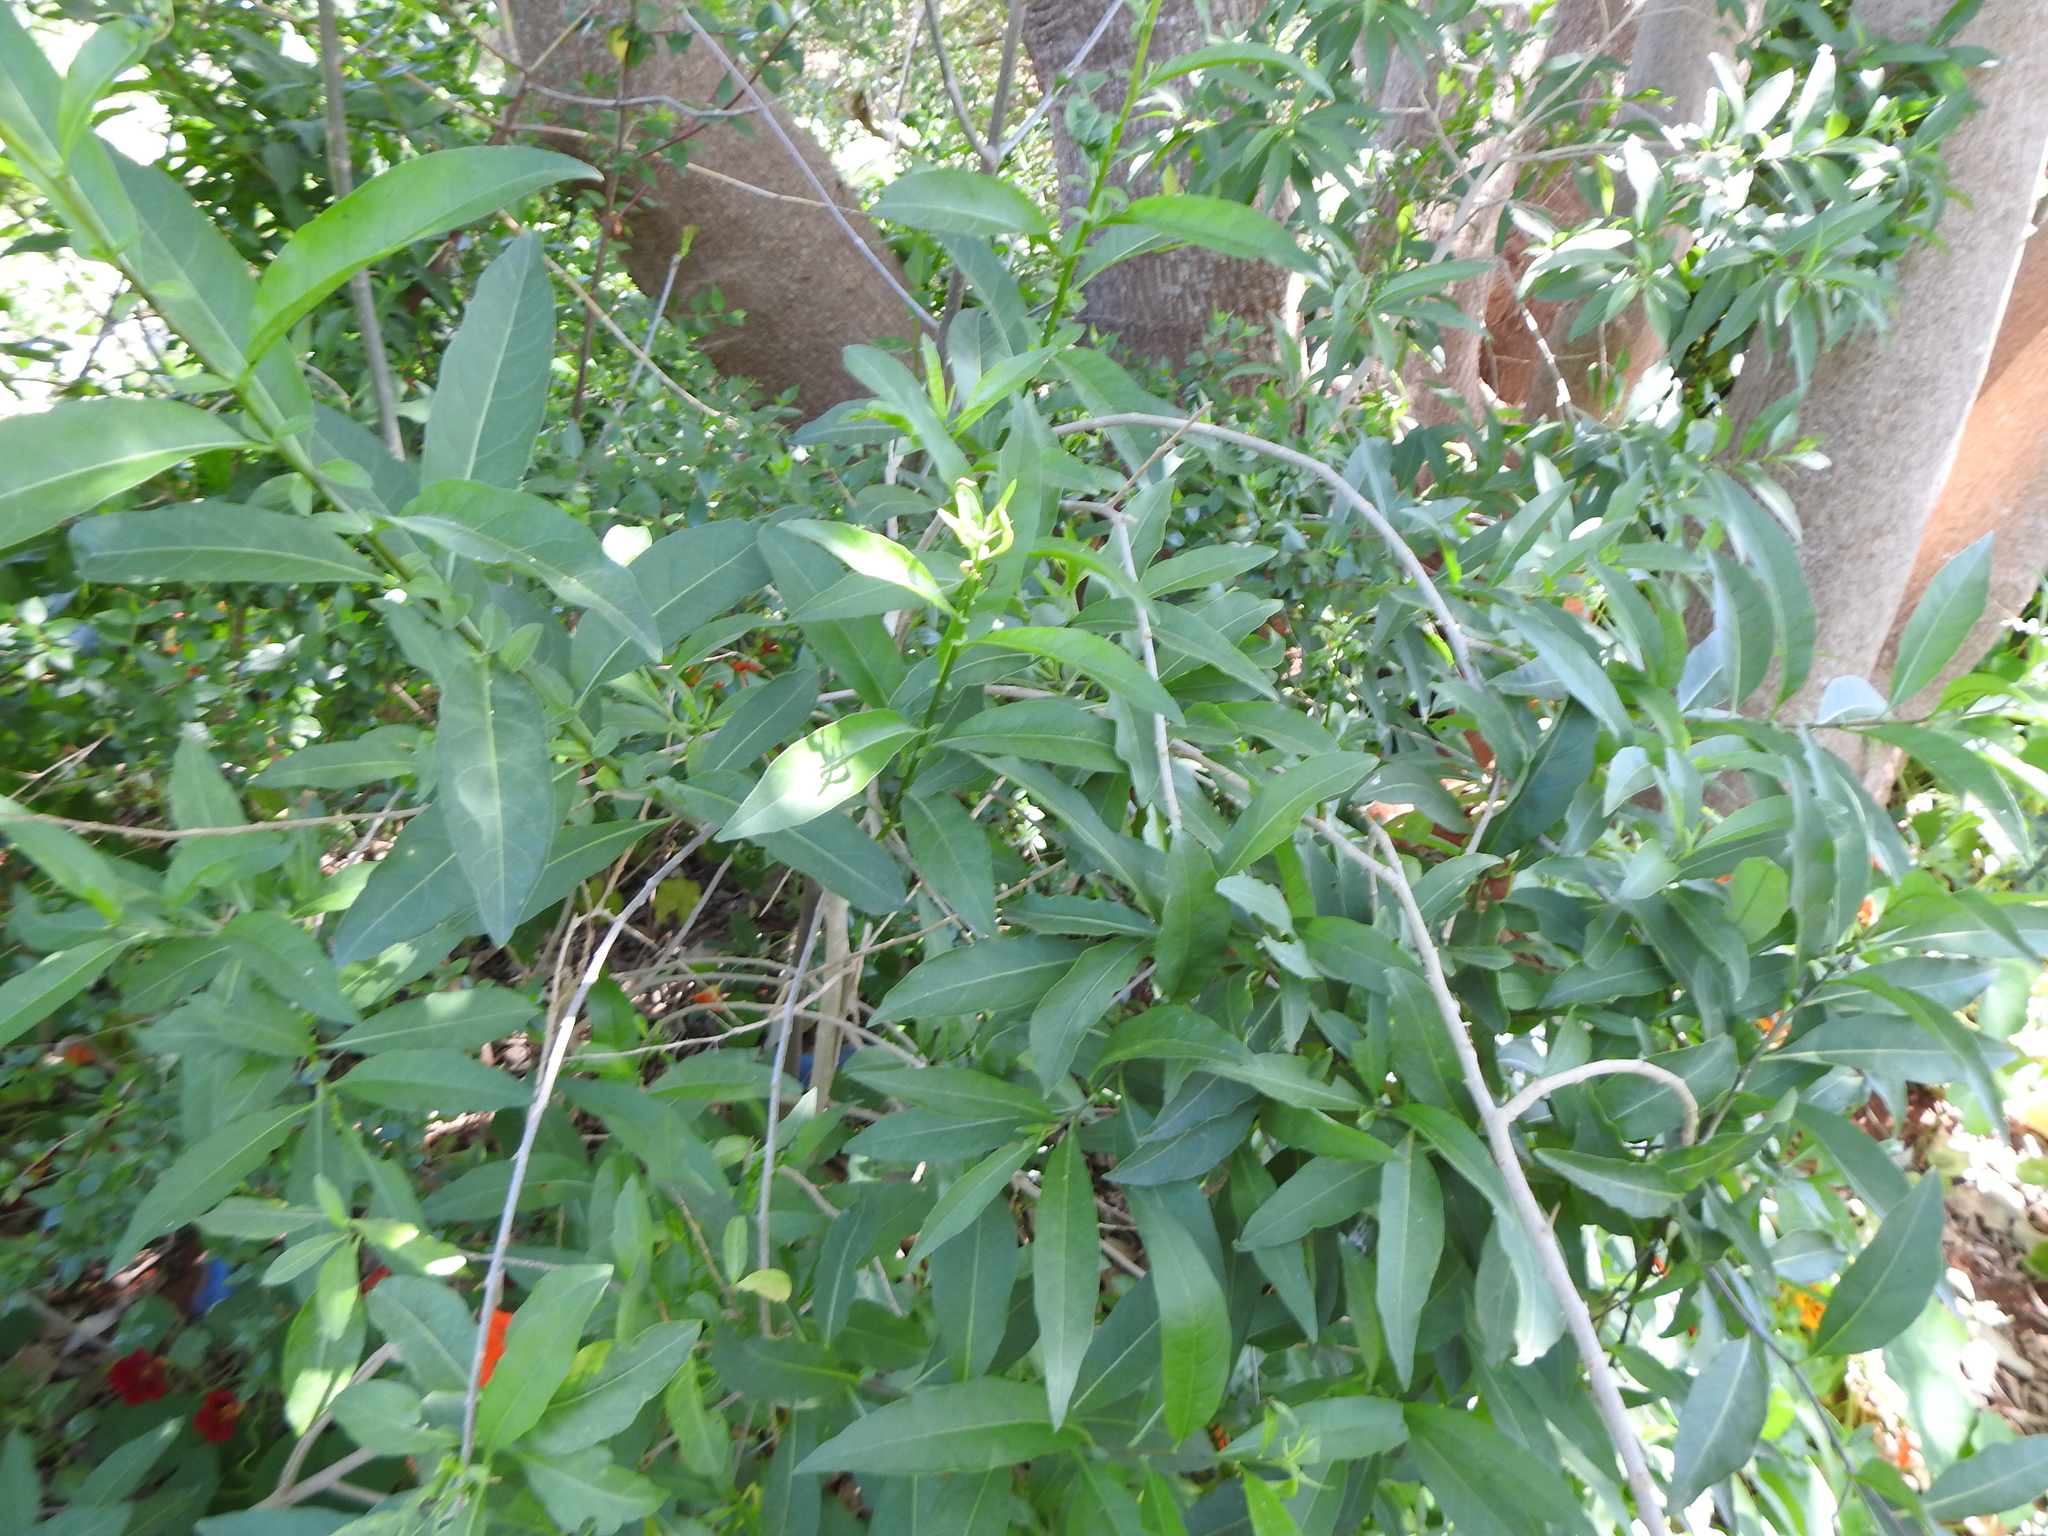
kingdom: Plantae
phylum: Tracheophyta
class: Magnoliopsida
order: Solanales
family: Solanaceae
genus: Cestrum
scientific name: Cestrum parqui
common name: Chilean cestrum
